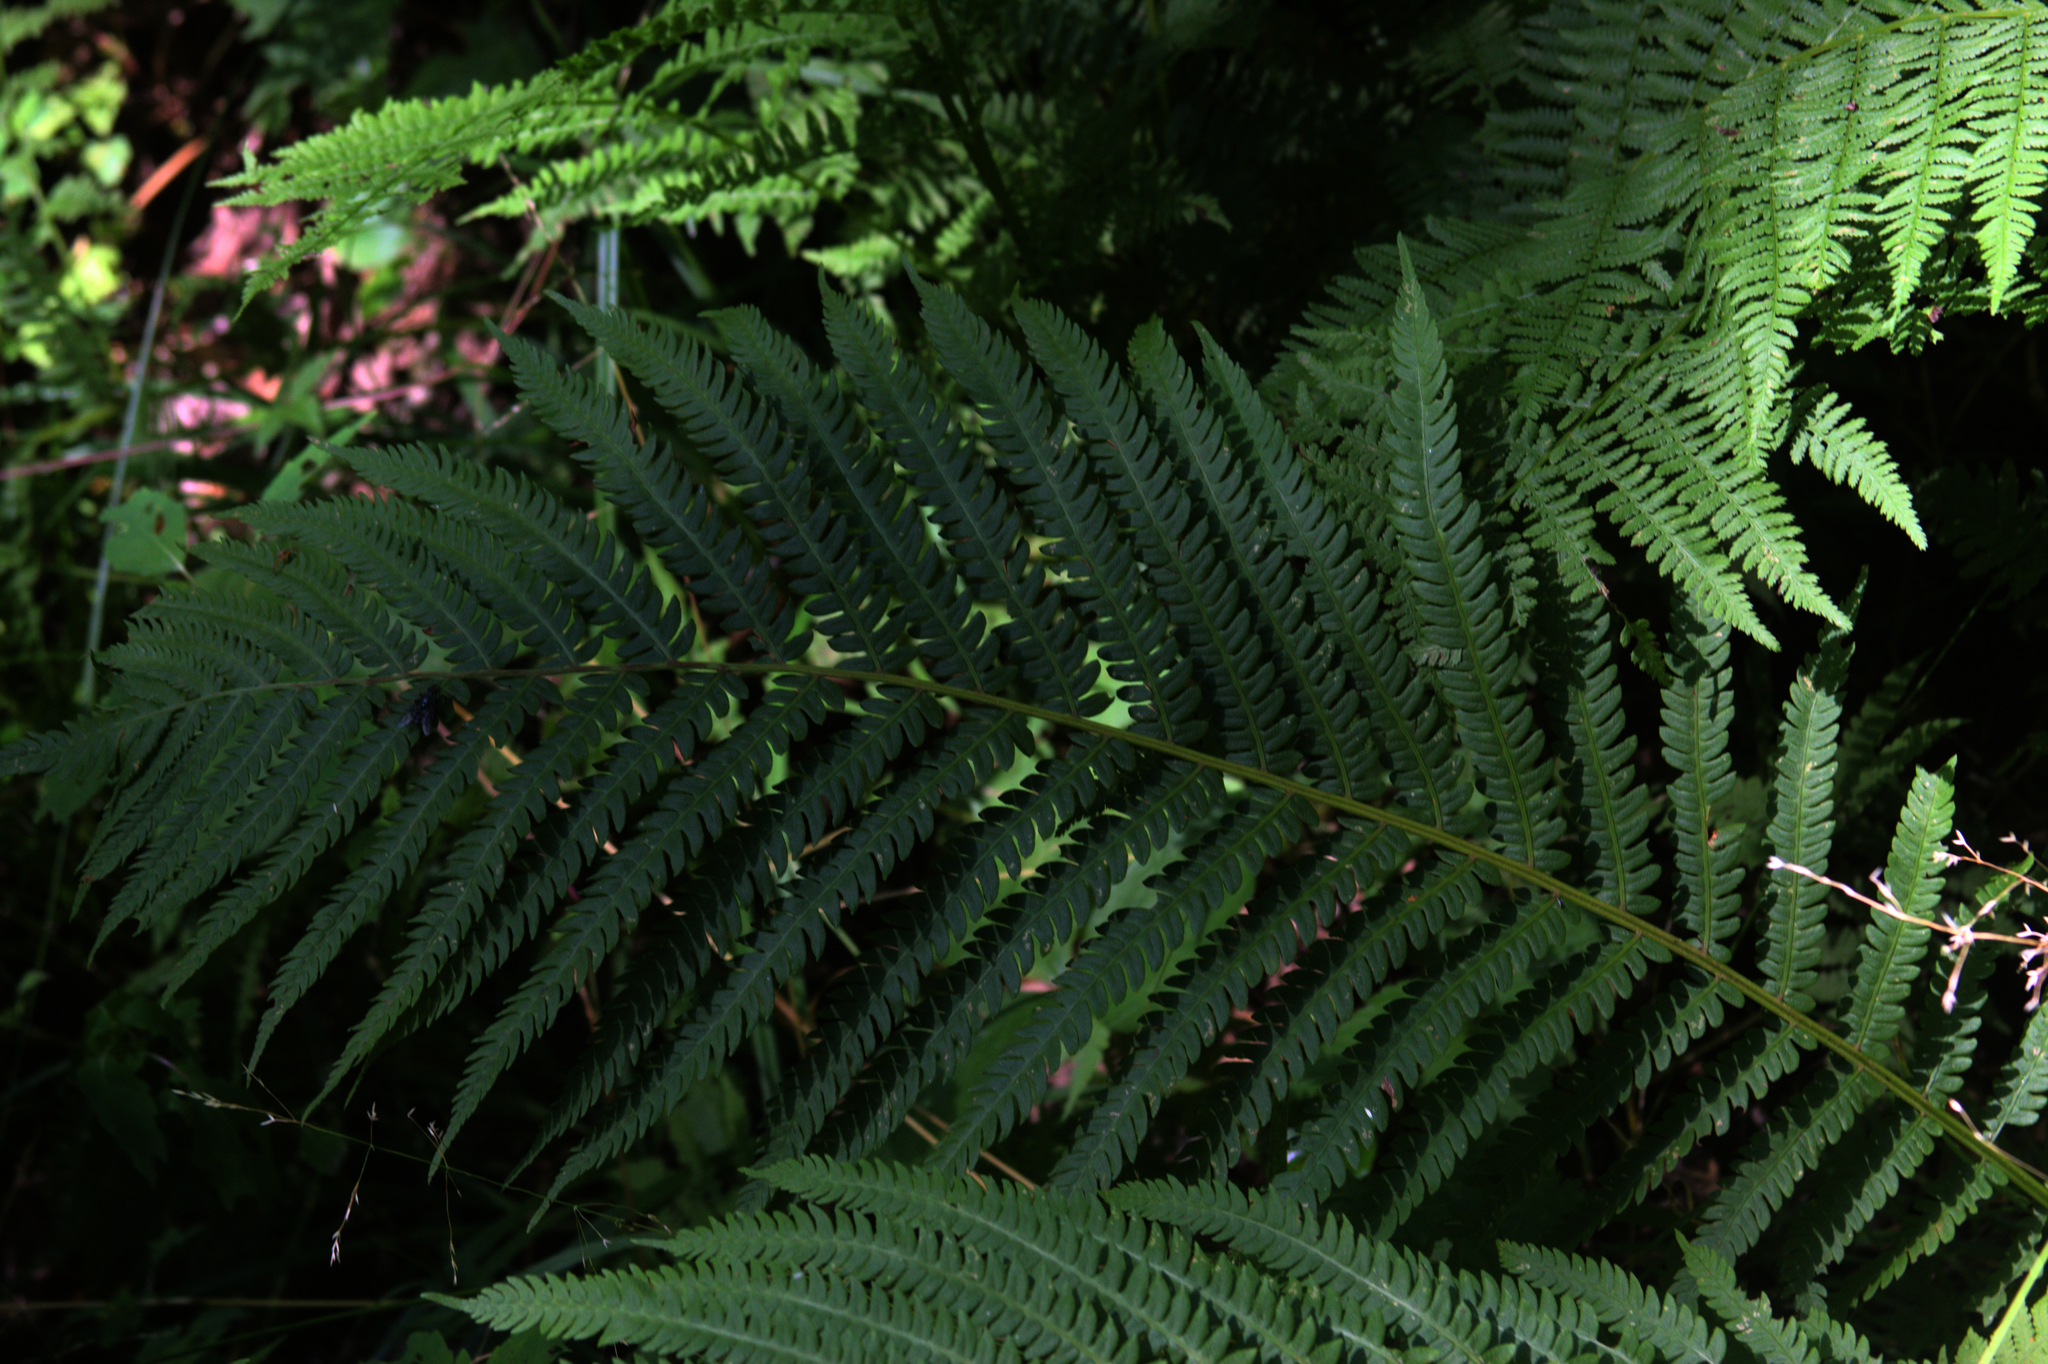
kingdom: Plantae
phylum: Tracheophyta
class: Polypodiopsida
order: Polypodiales
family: Onocleaceae
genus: Matteuccia
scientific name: Matteuccia struthiopteris
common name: Ostrich fern
